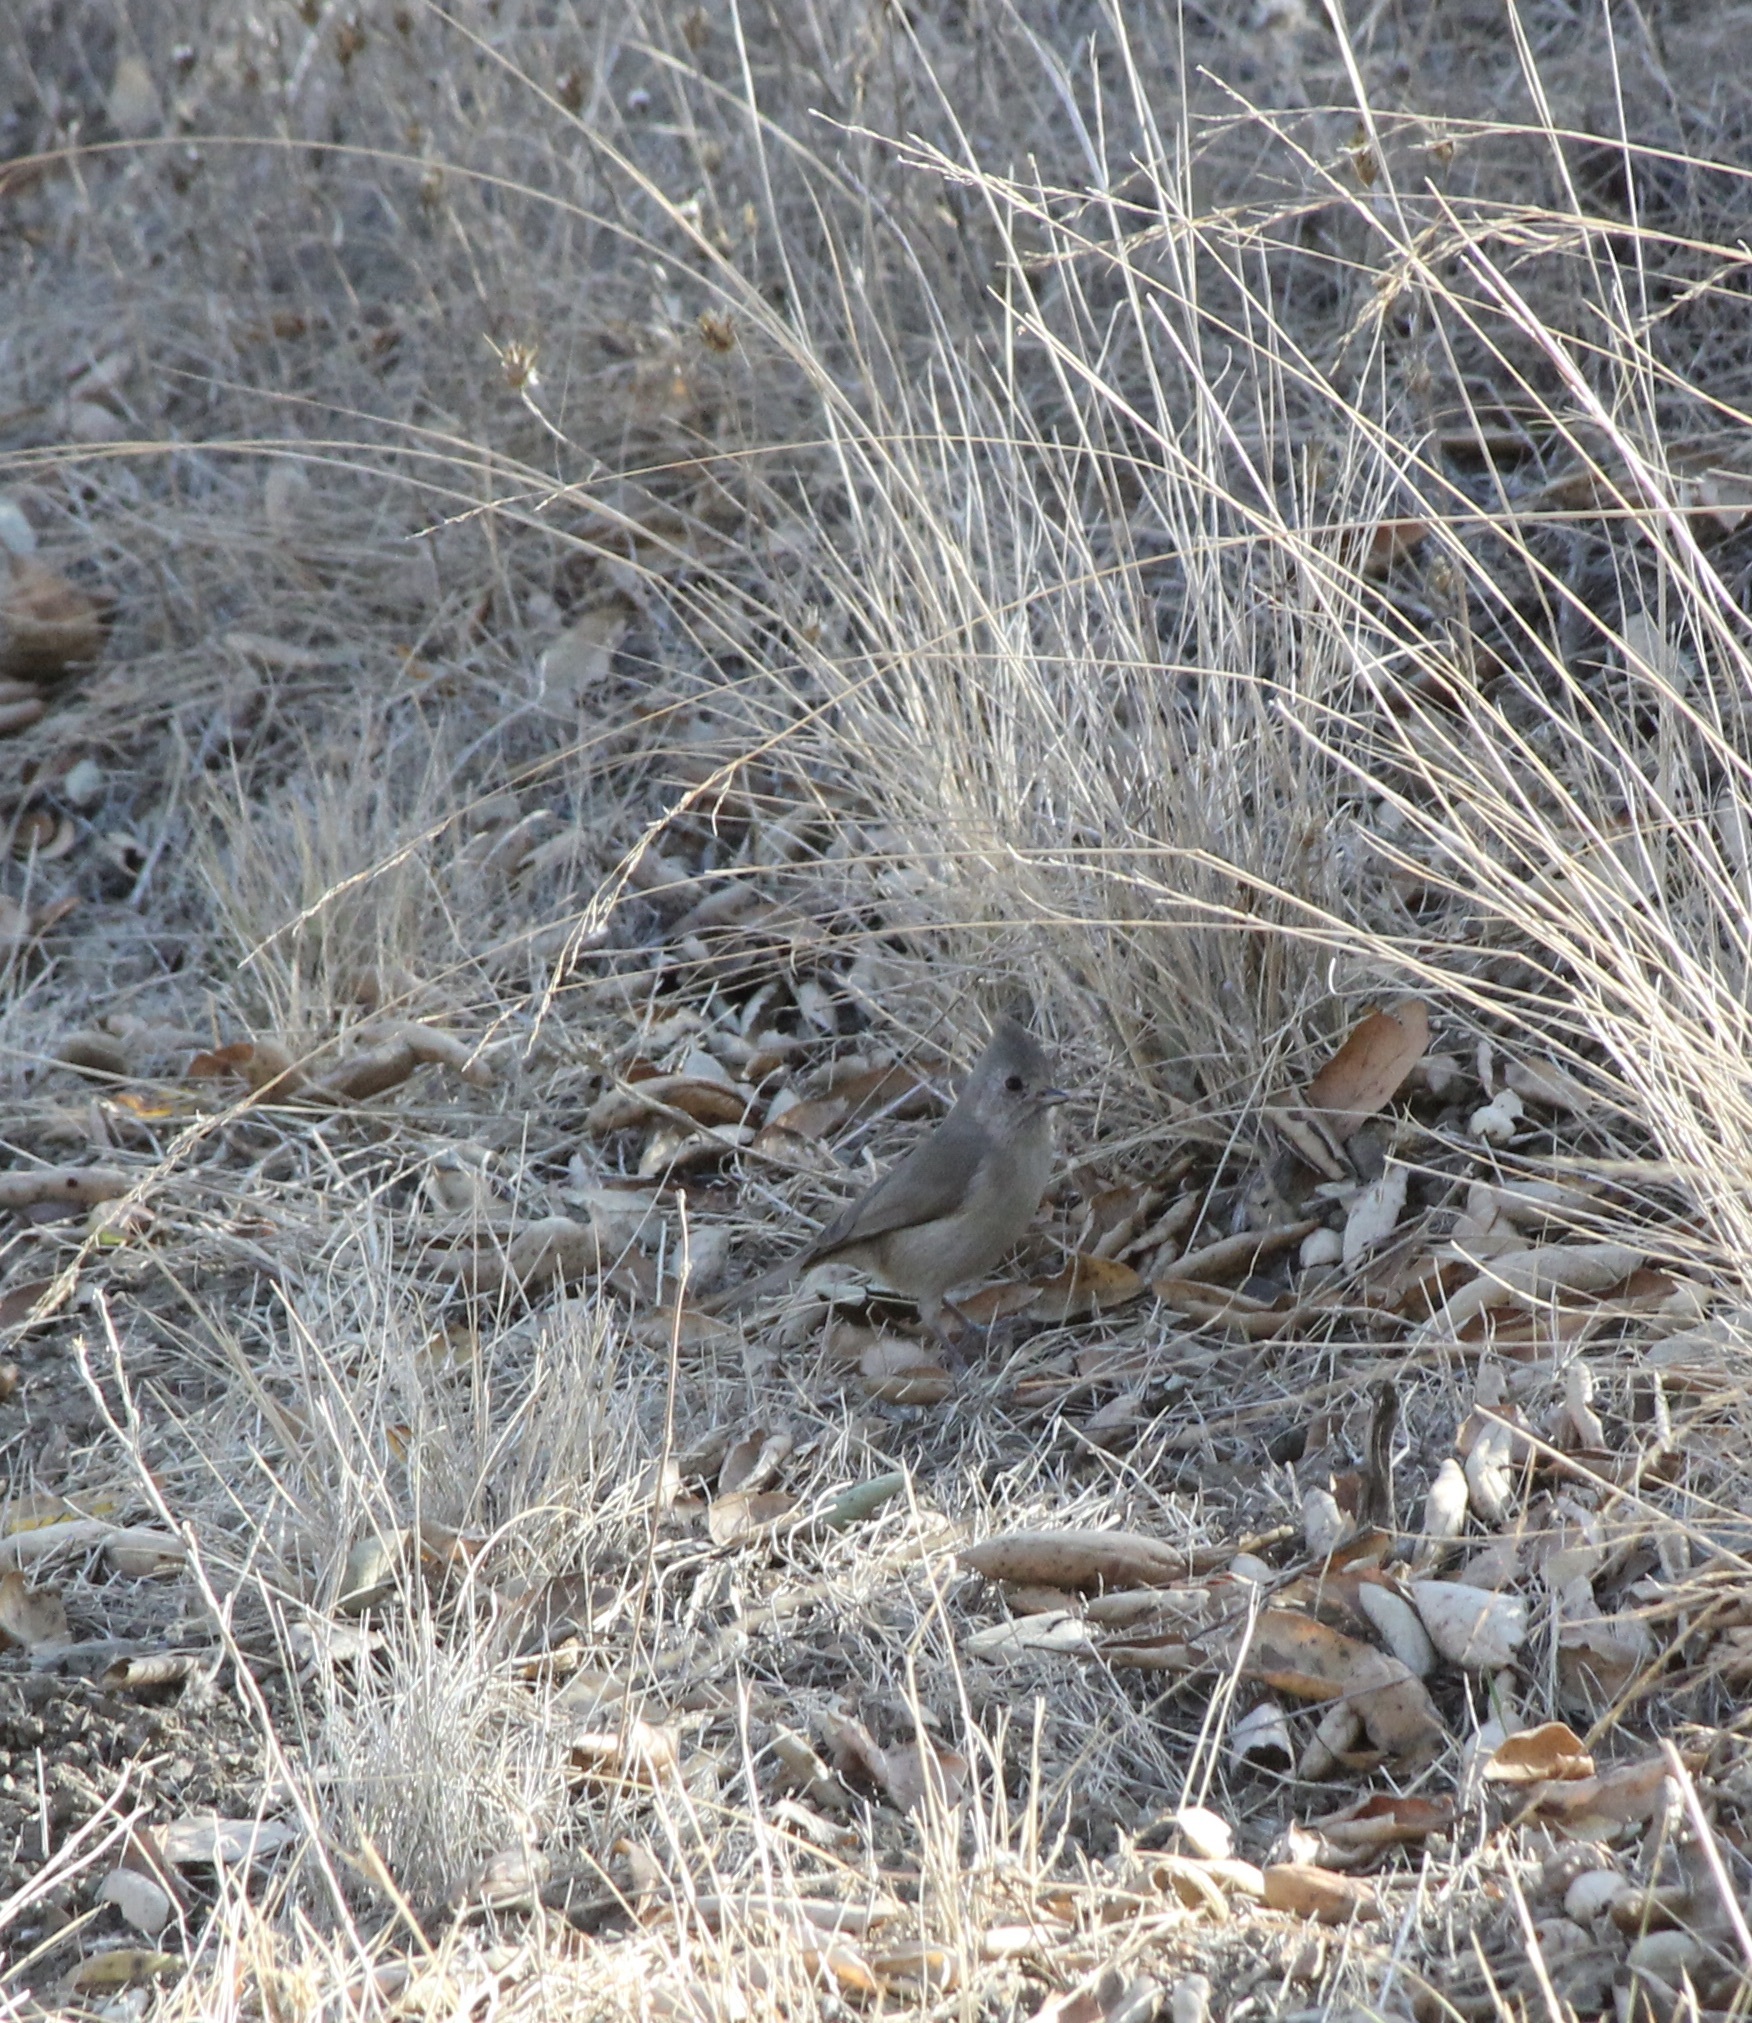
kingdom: Animalia
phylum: Chordata
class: Aves
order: Passeriformes
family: Paridae
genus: Baeolophus
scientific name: Baeolophus inornatus
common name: Oak titmouse
